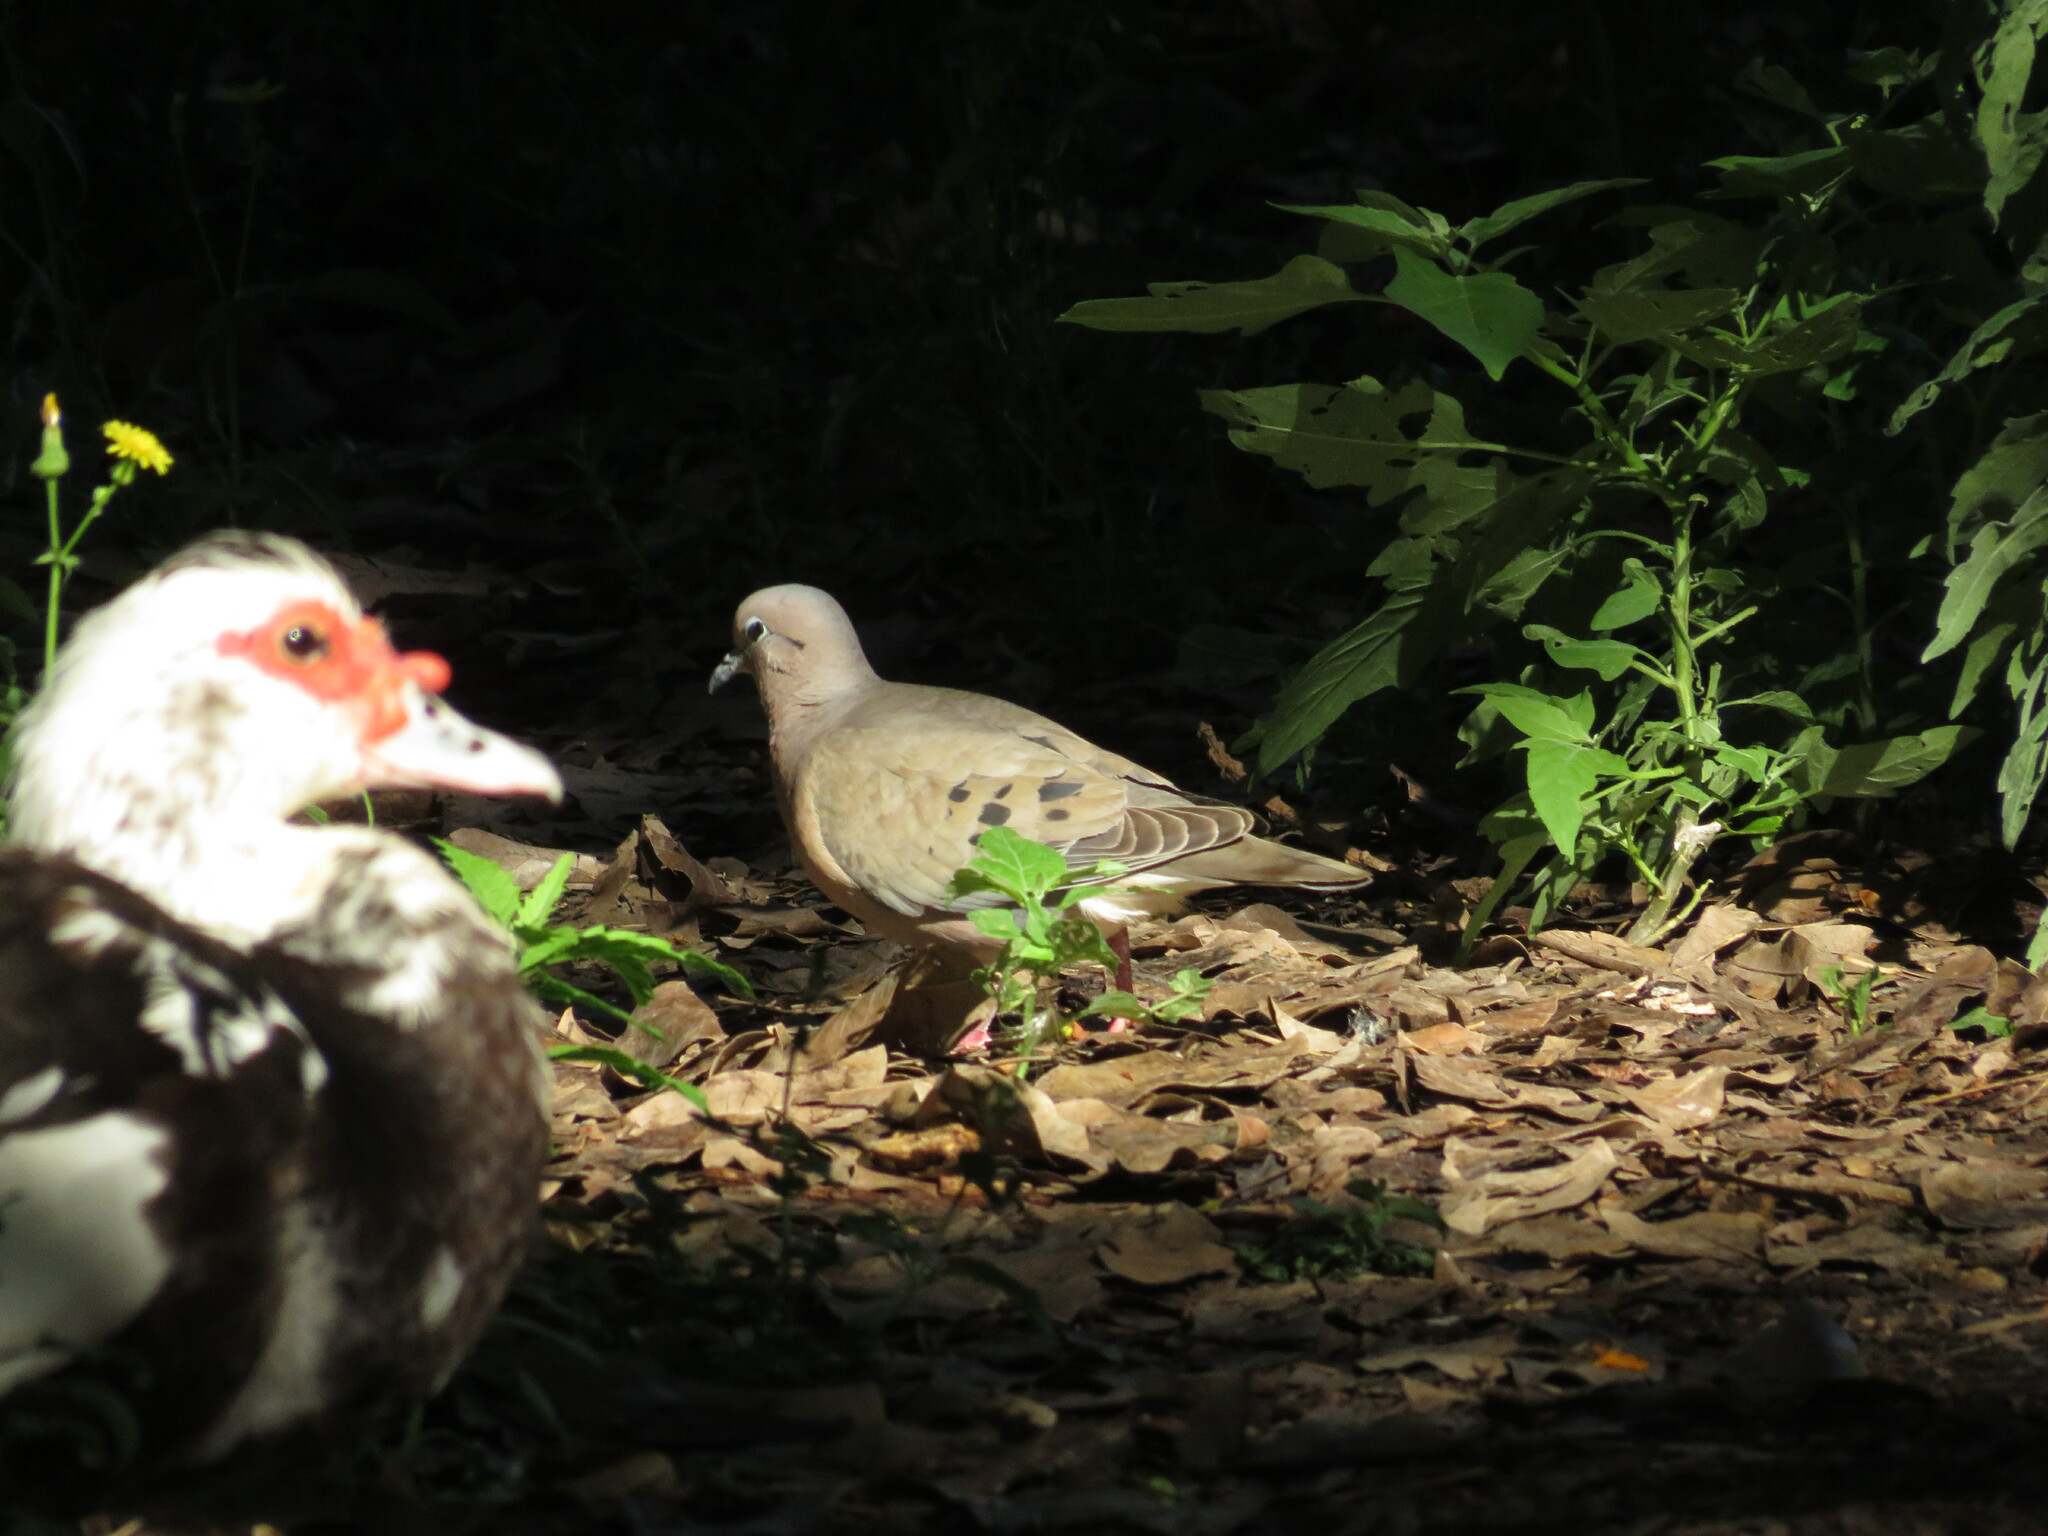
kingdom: Animalia
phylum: Chordata
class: Aves
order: Columbiformes
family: Columbidae
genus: Zenaida
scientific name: Zenaida auriculata
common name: Eared dove
